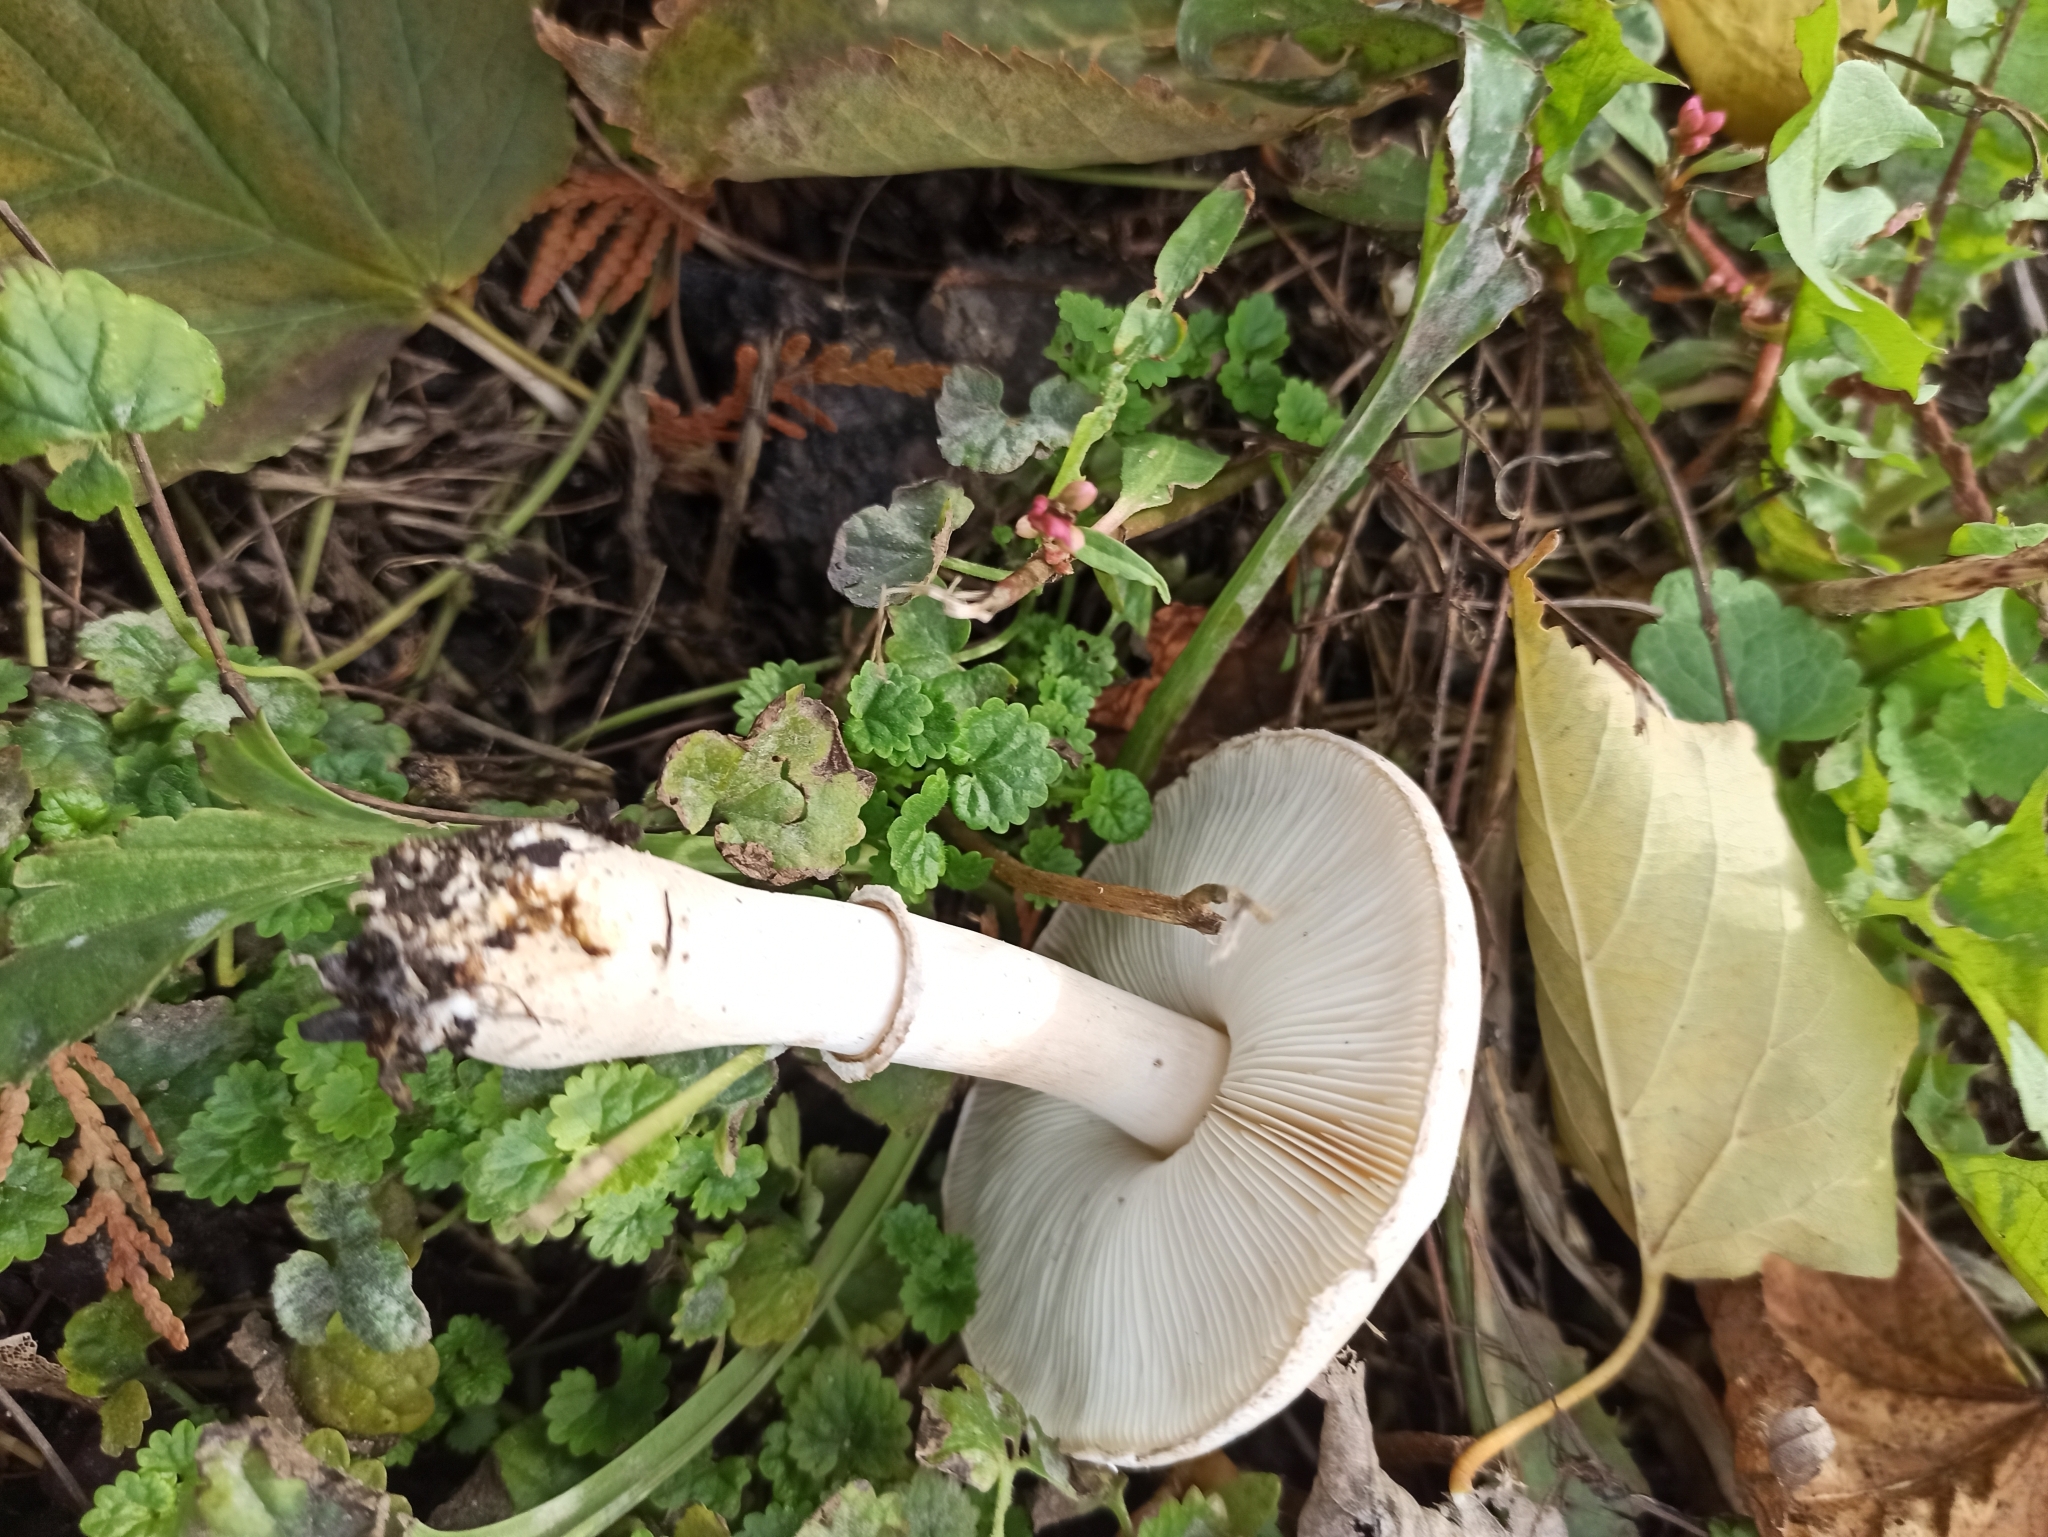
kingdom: Fungi
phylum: Basidiomycota
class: Agaricomycetes
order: Agaricales
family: Agaricaceae
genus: Leucoagaricus
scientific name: Leucoagaricus leucothites
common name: White dapperling
